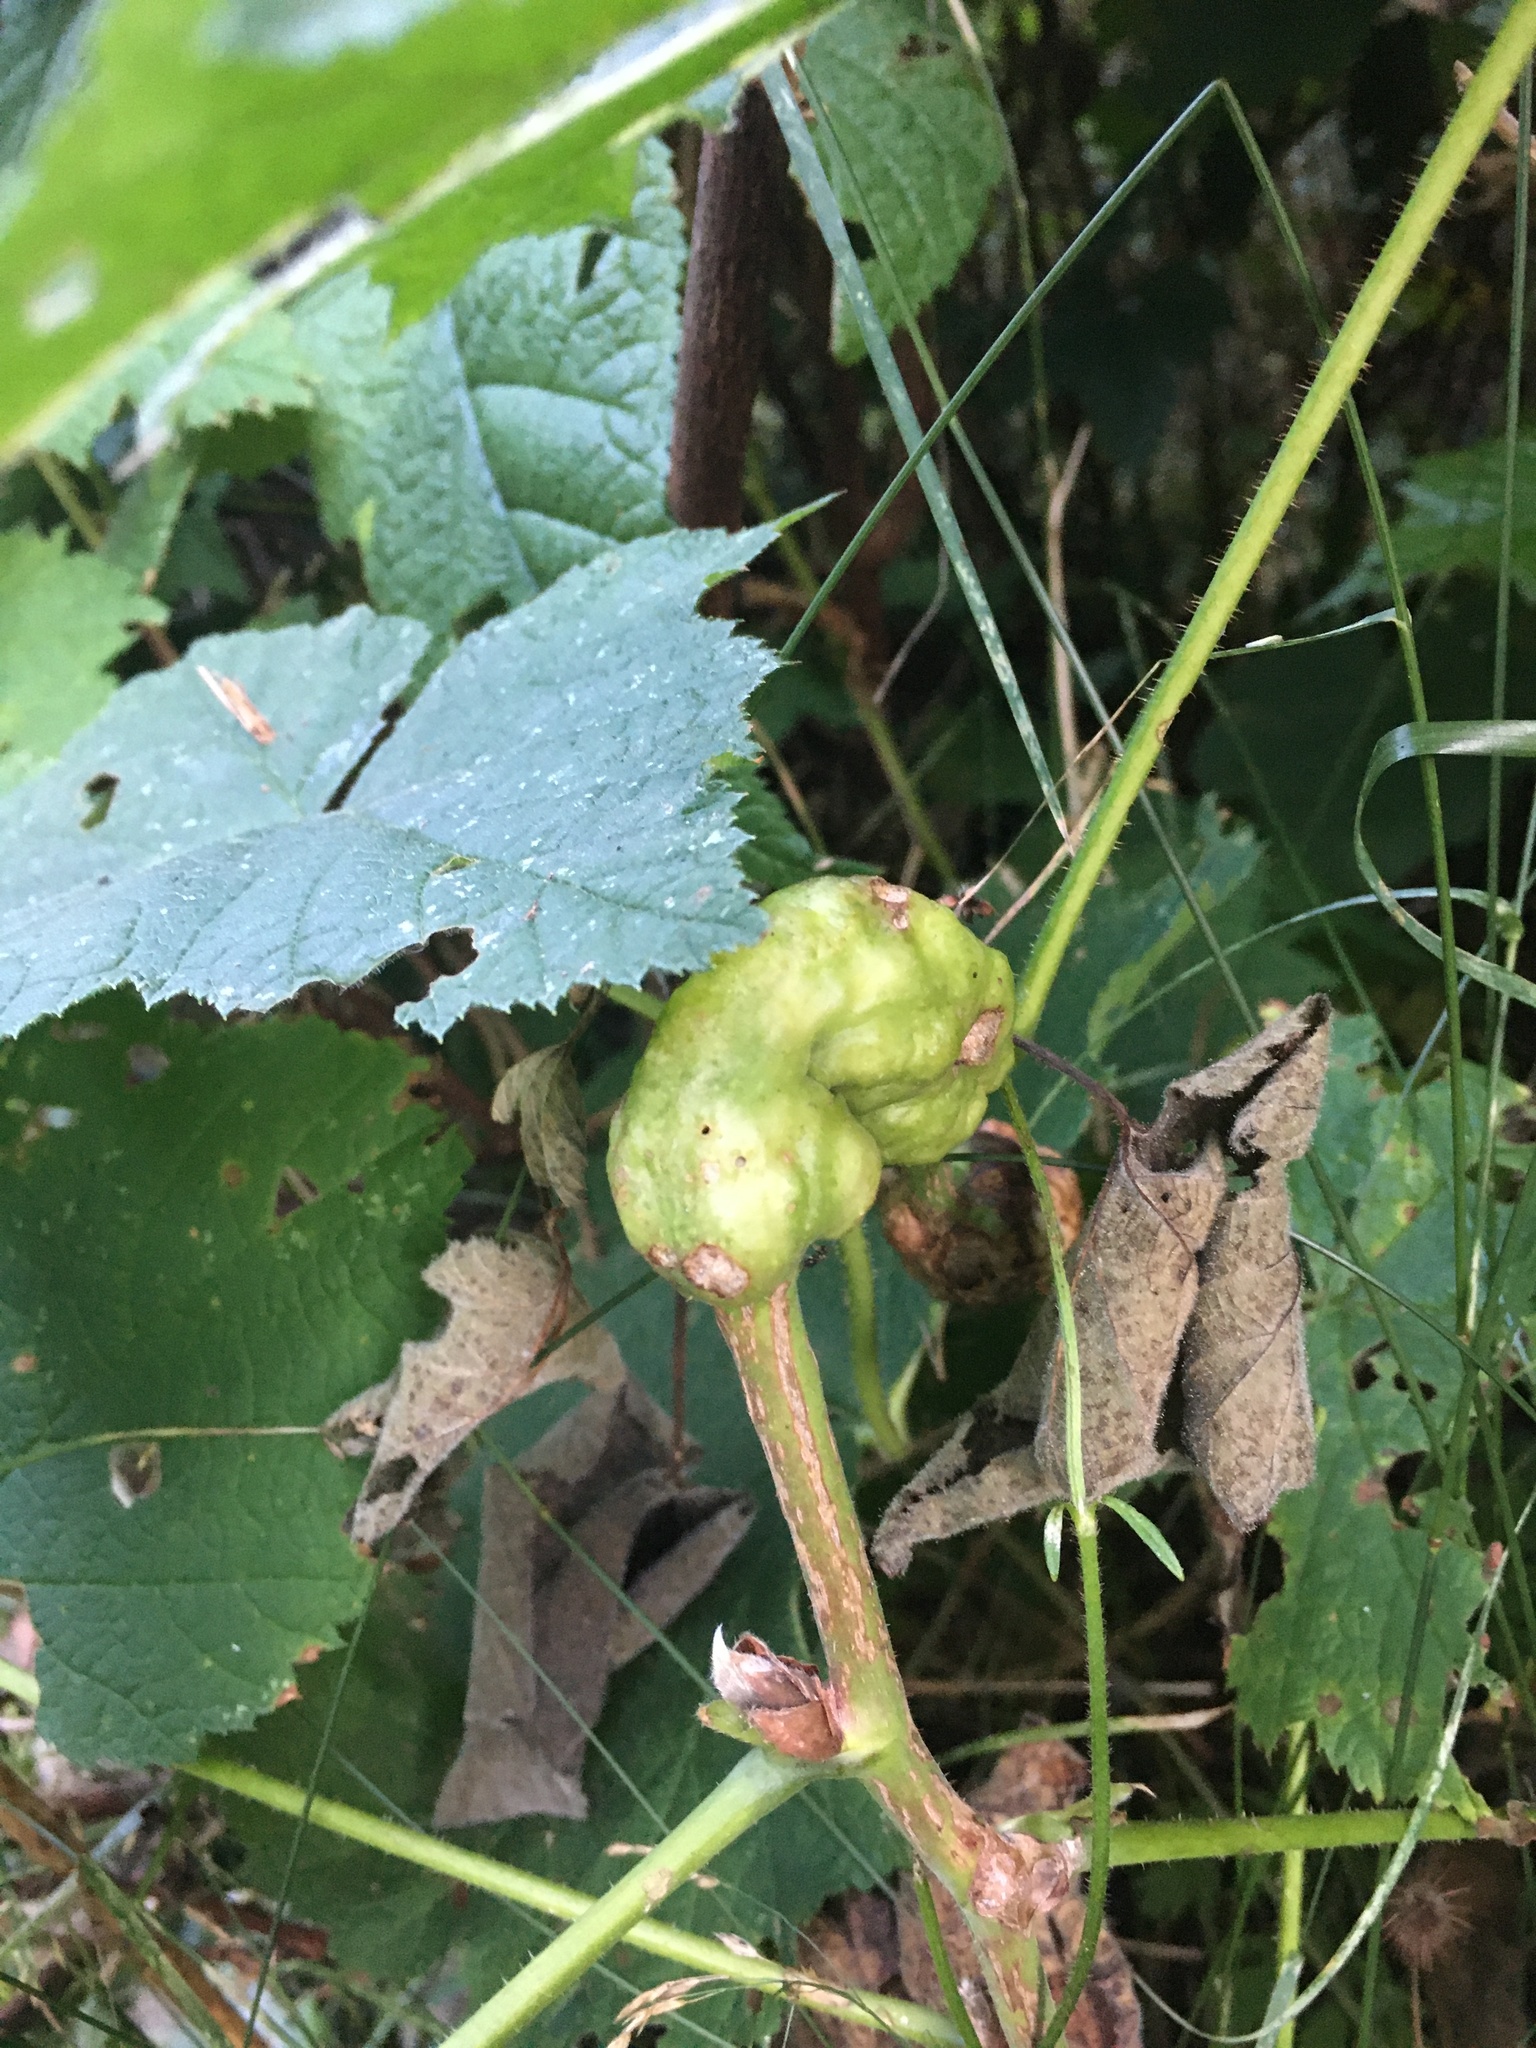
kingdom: Animalia
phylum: Arthropoda
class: Insecta
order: Hymenoptera
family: Cynipidae
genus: Diastrophus
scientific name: Diastrophus
